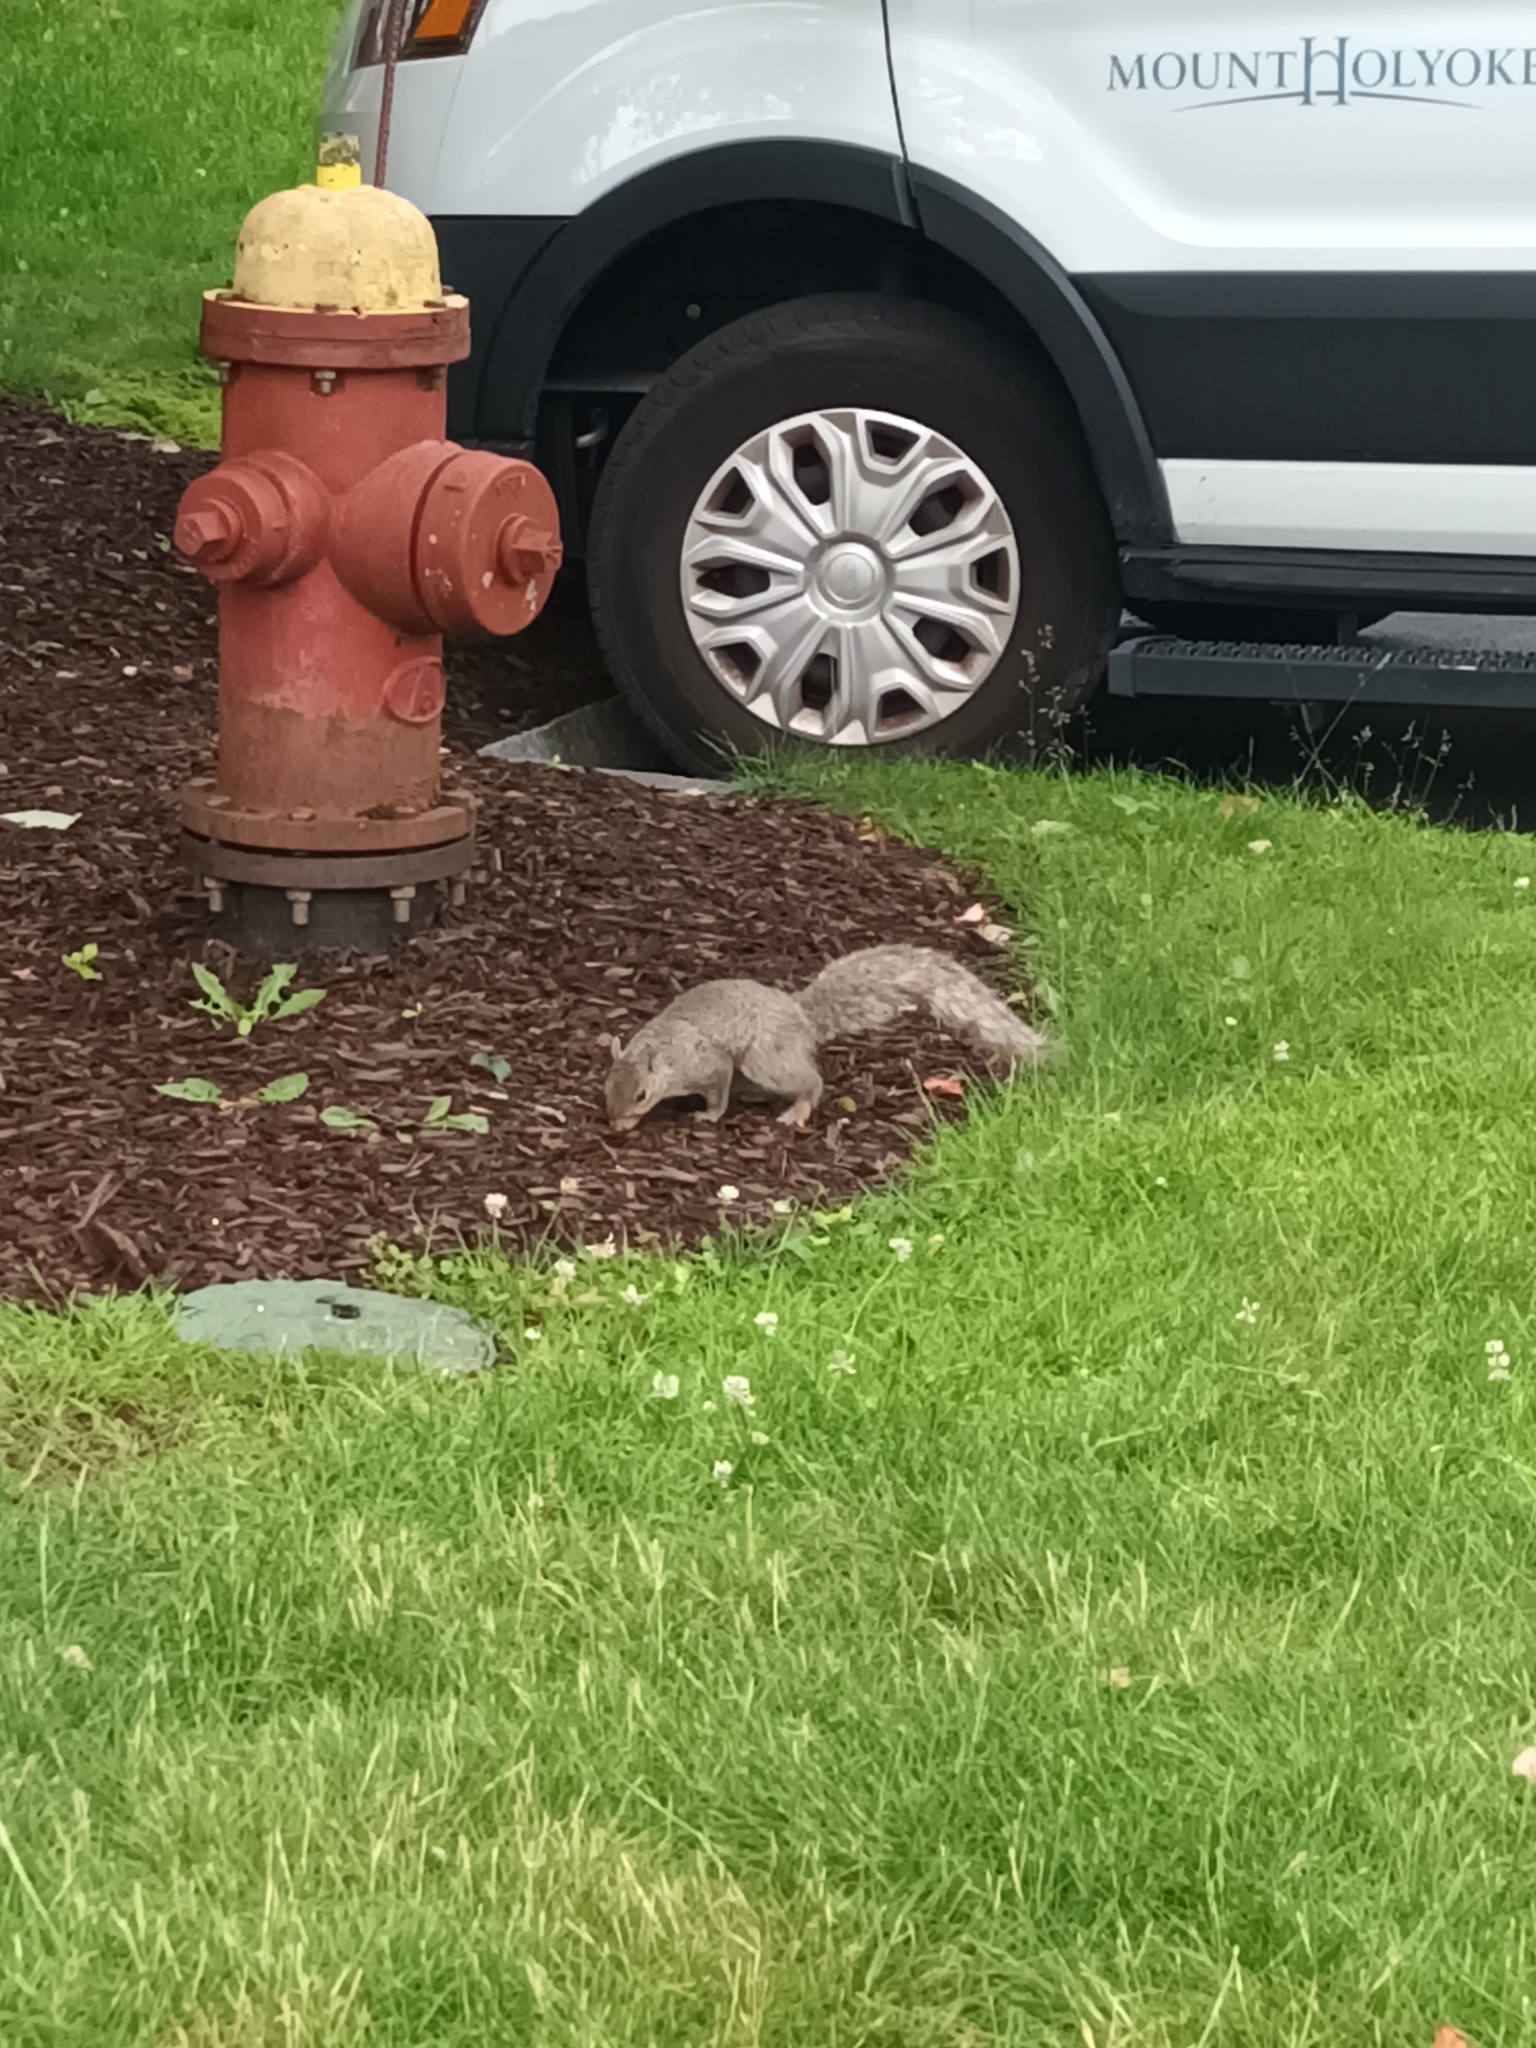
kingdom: Animalia
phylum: Chordata
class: Mammalia
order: Rodentia
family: Sciuridae
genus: Sciurus
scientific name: Sciurus carolinensis
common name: Eastern gray squirrel
